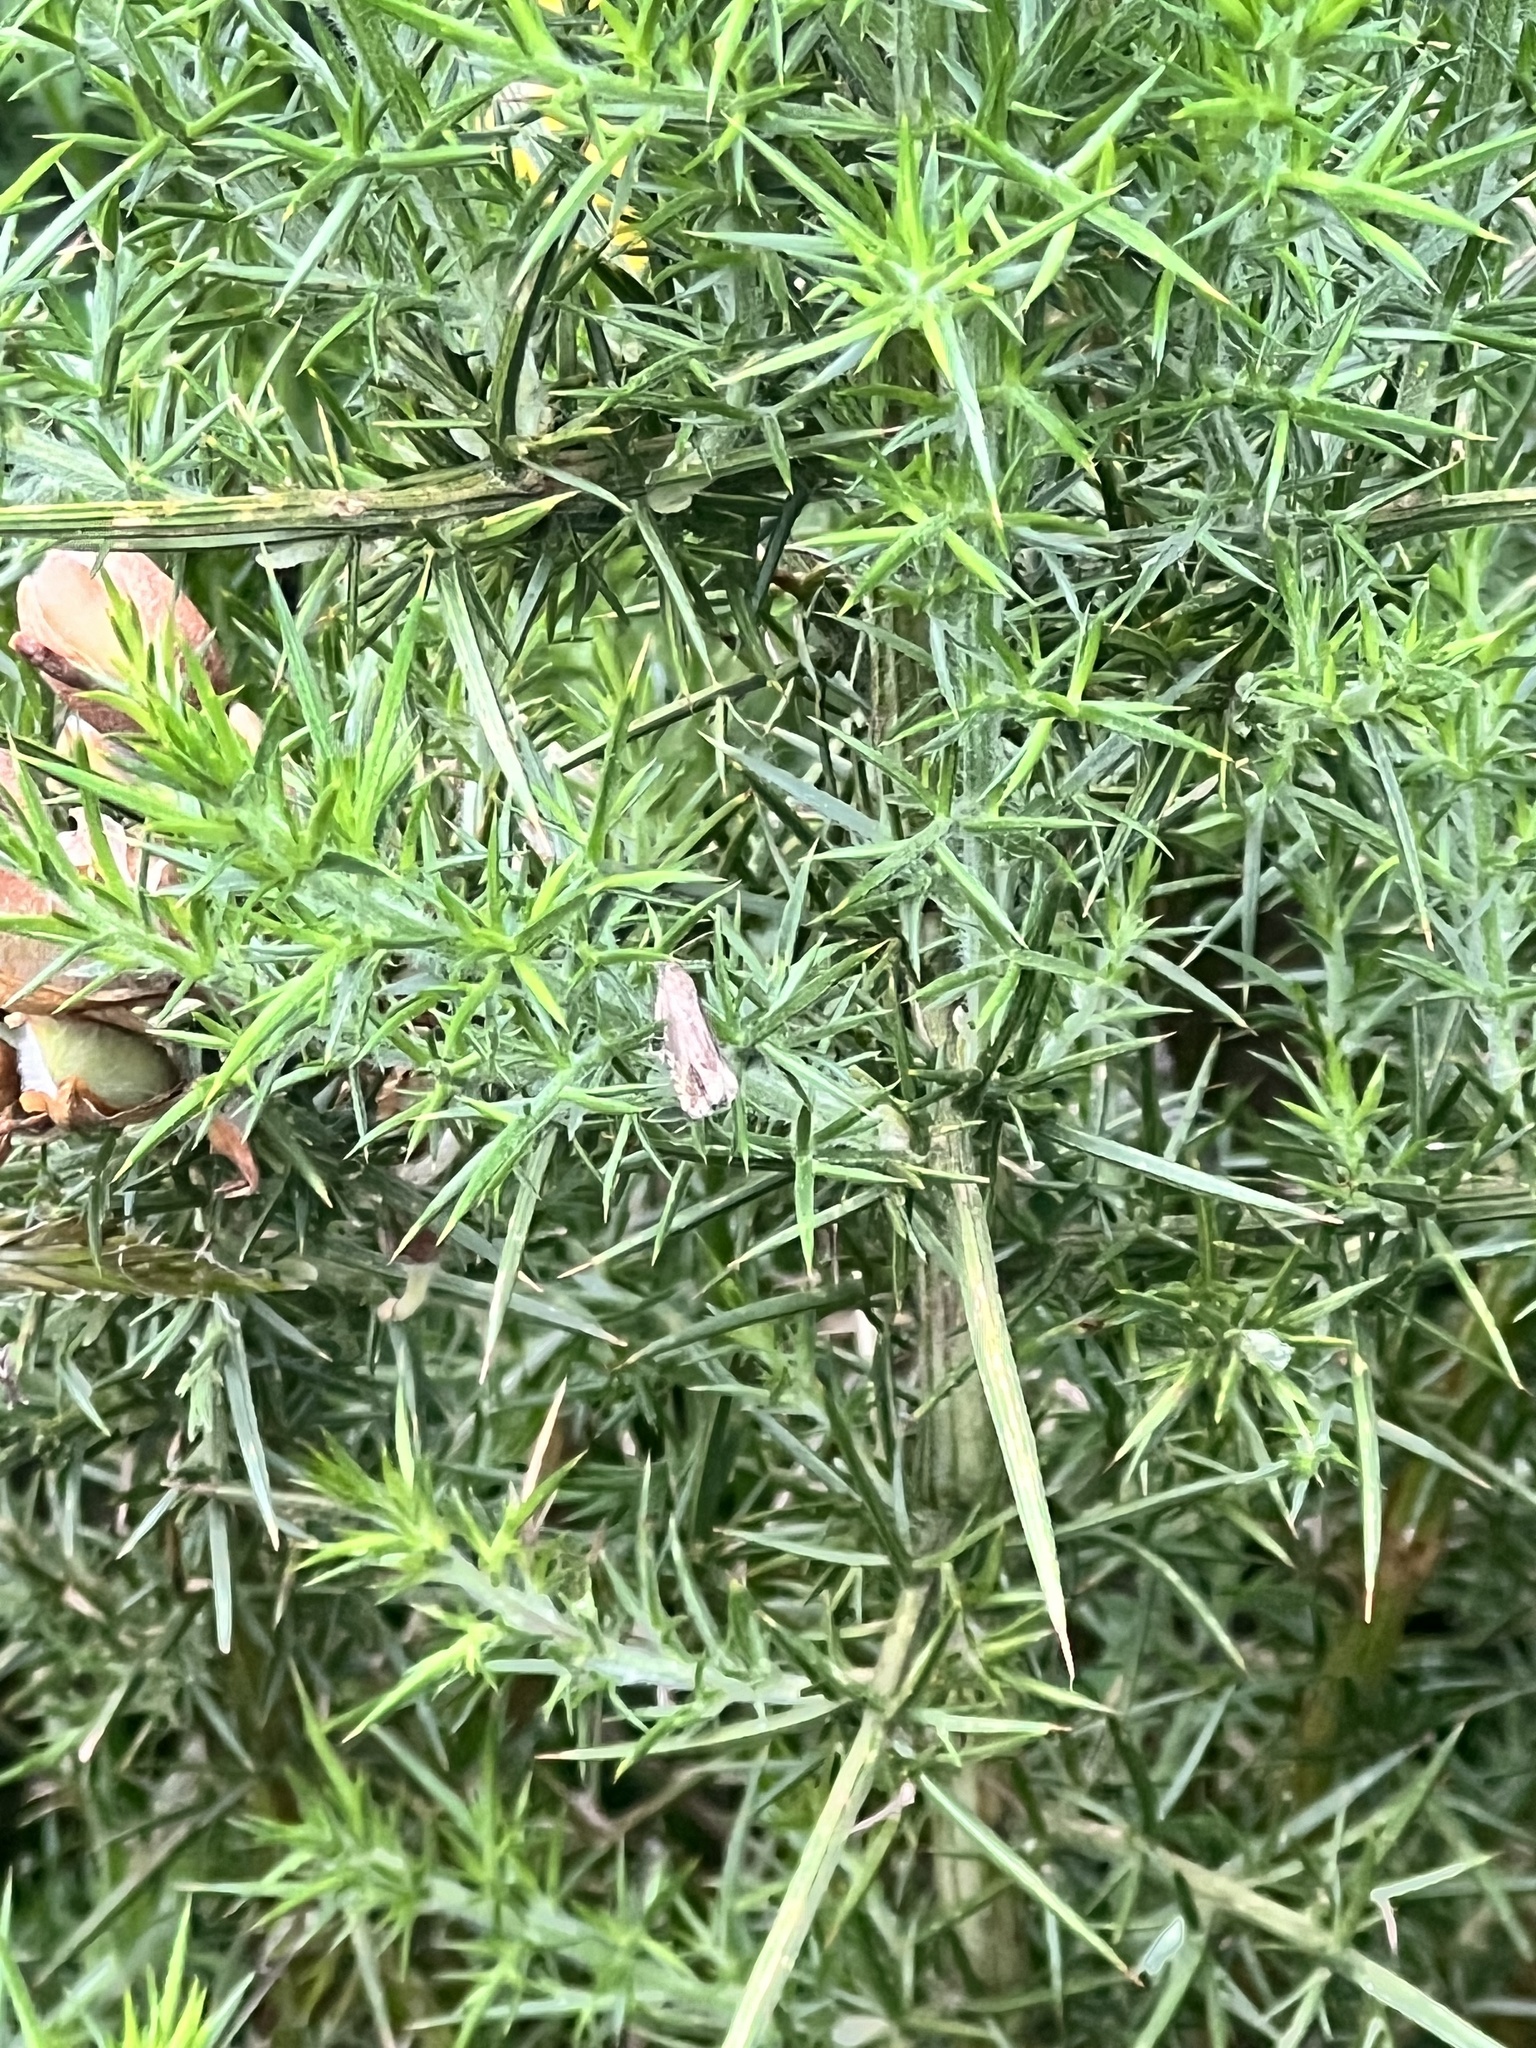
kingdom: Animalia
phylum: Arthropoda
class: Insecta
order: Lepidoptera
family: Tortricidae
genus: Cydia
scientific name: Cydia succedana
